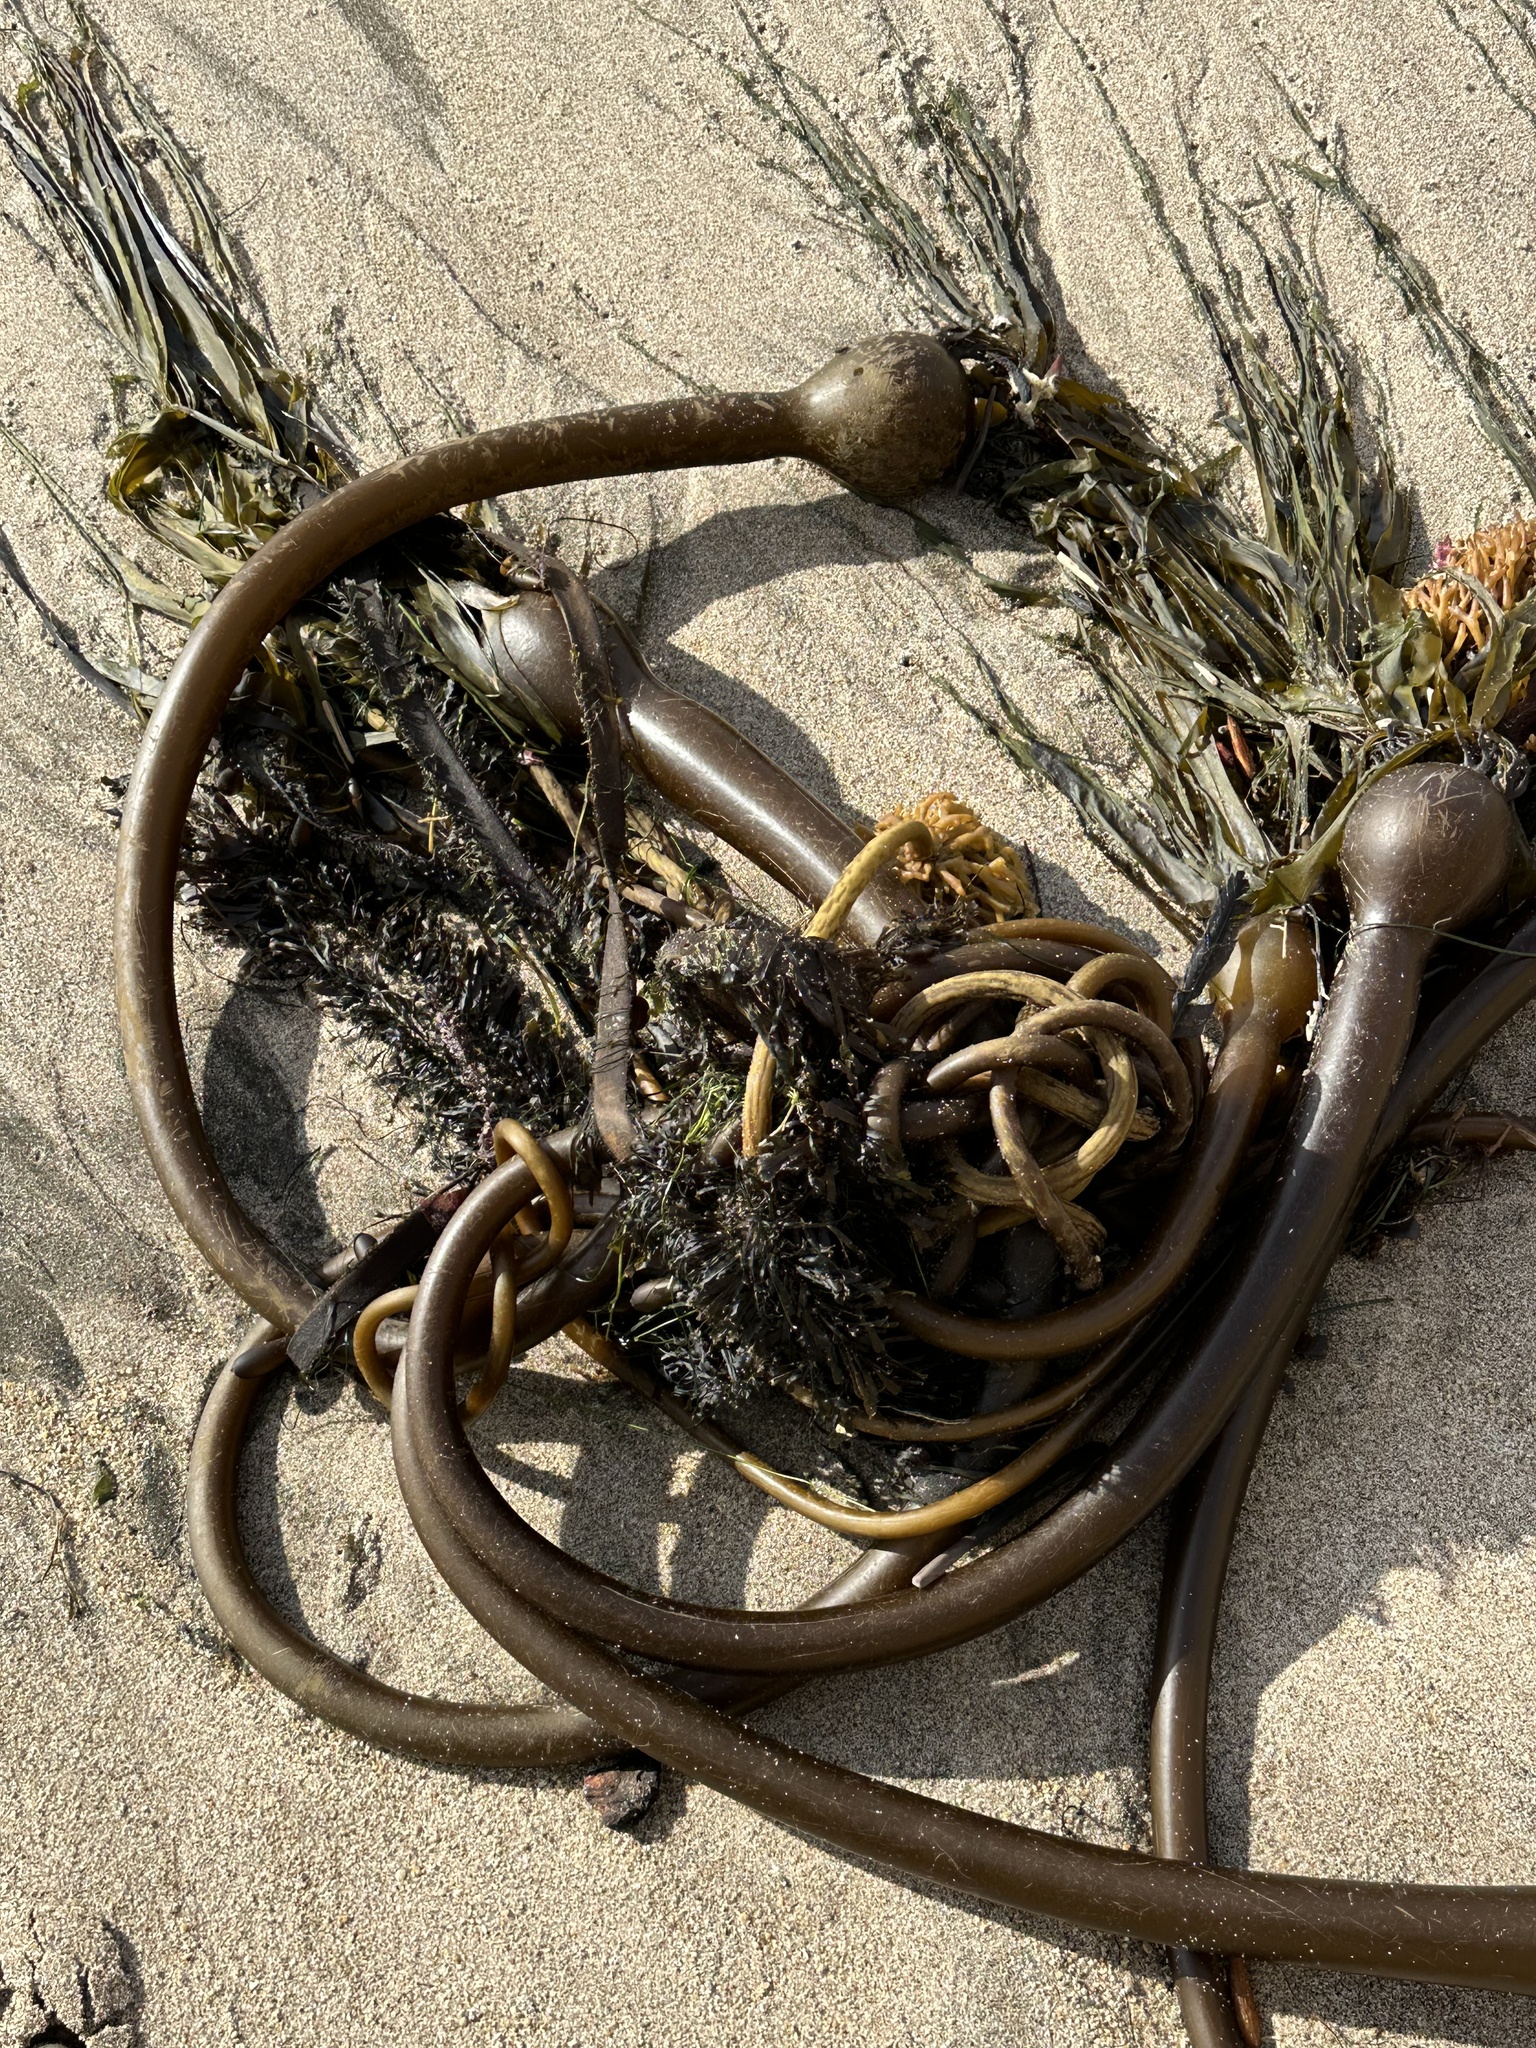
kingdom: Chromista
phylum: Ochrophyta
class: Phaeophyceae
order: Laminariales
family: Laminariaceae
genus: Nereocystis
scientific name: Nereocystis luetkeana
